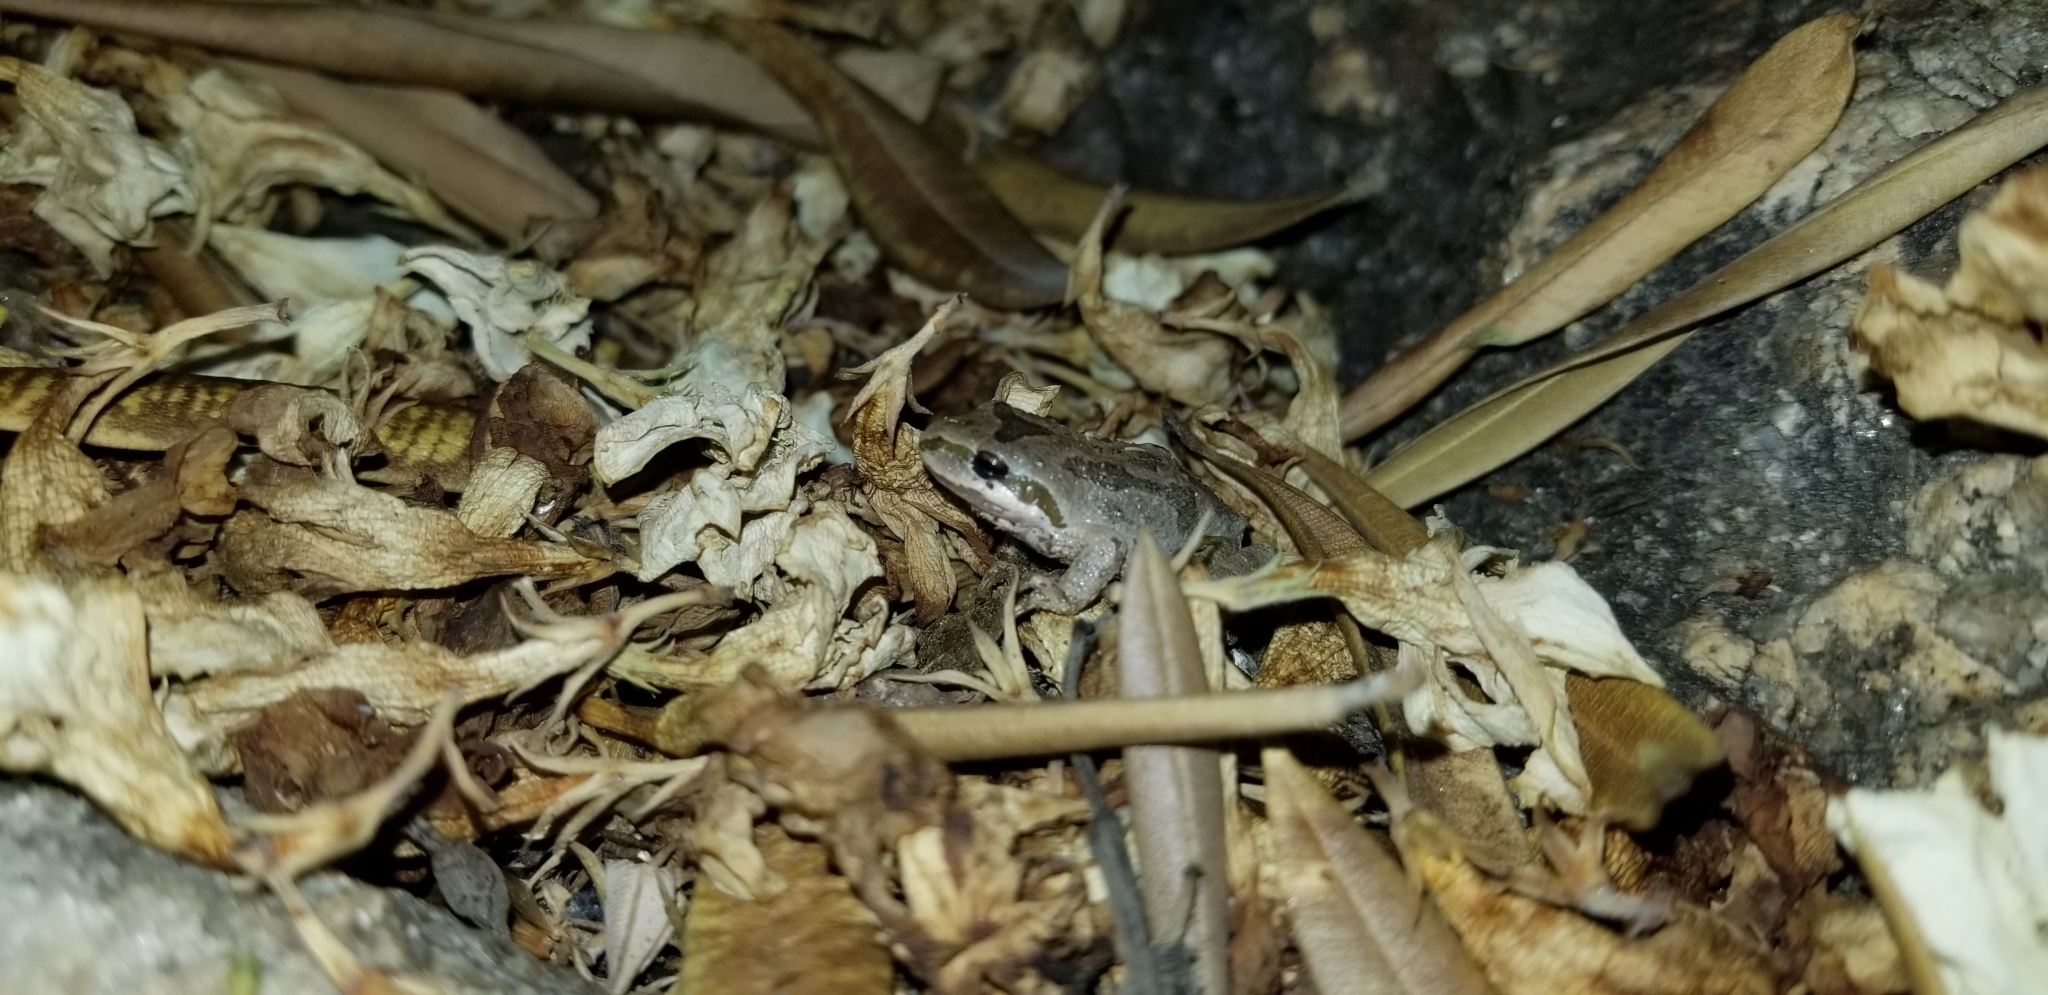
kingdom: Animalia
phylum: Chordata
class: Amphibia
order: Anura
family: Hylidae
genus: Pseudacris
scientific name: Pseudacris regilla
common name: Pacific chorus frog
